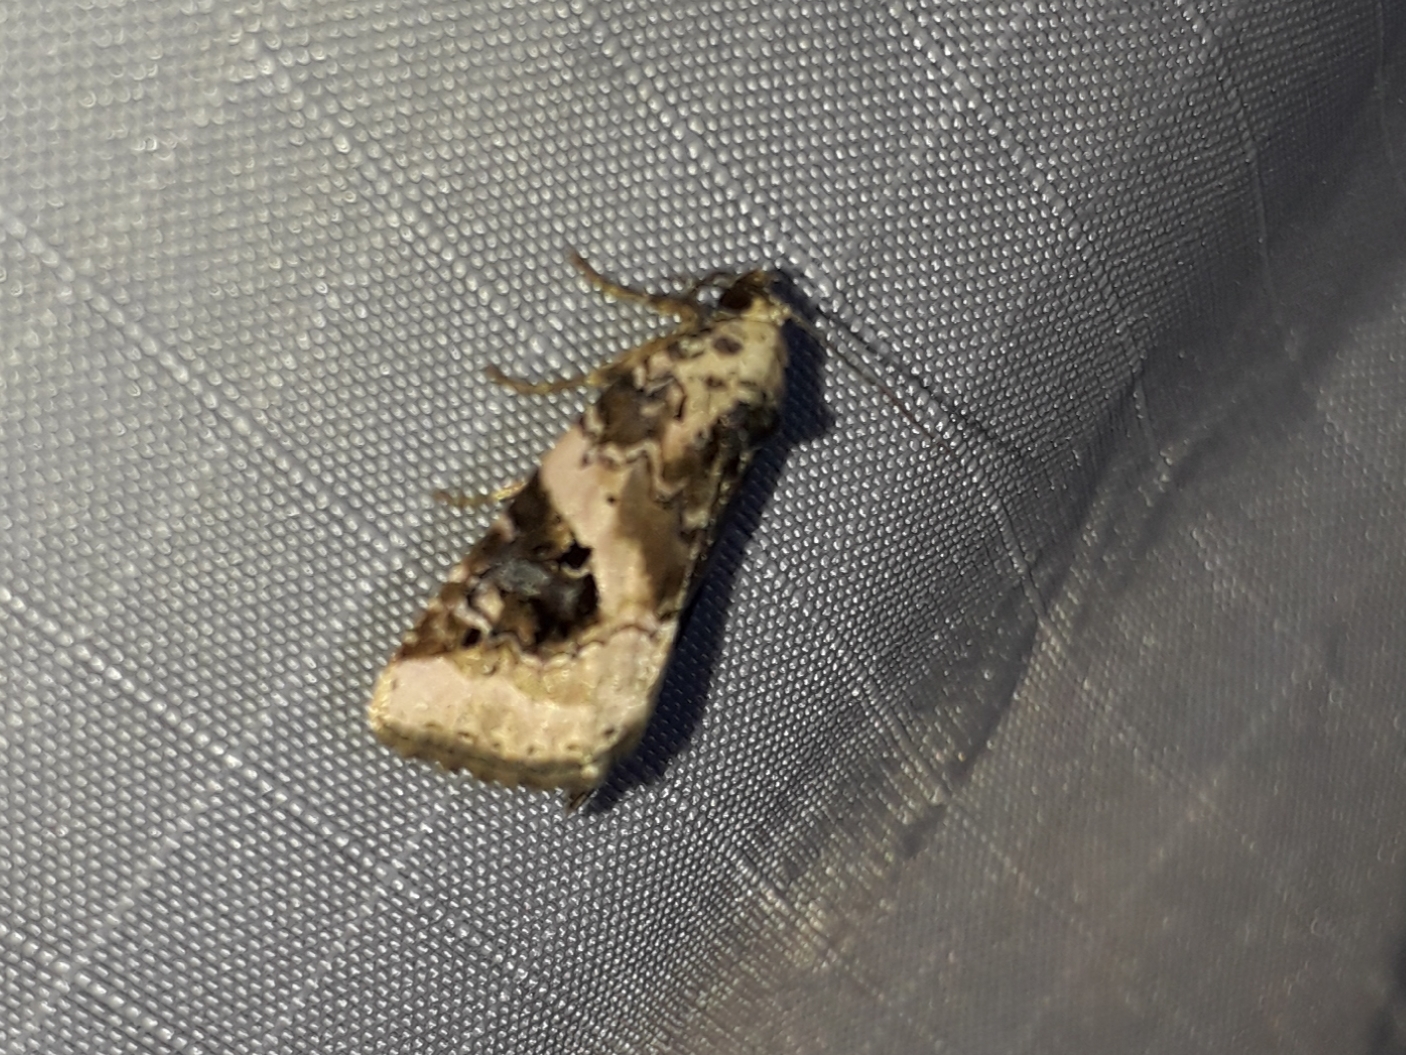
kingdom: Animalia
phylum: Arthropoda
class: Insecta
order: Lepidoptera
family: Noctuidae
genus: Pseudeustrotia
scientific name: Pseudeustrotia candidula
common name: Shining marbled
